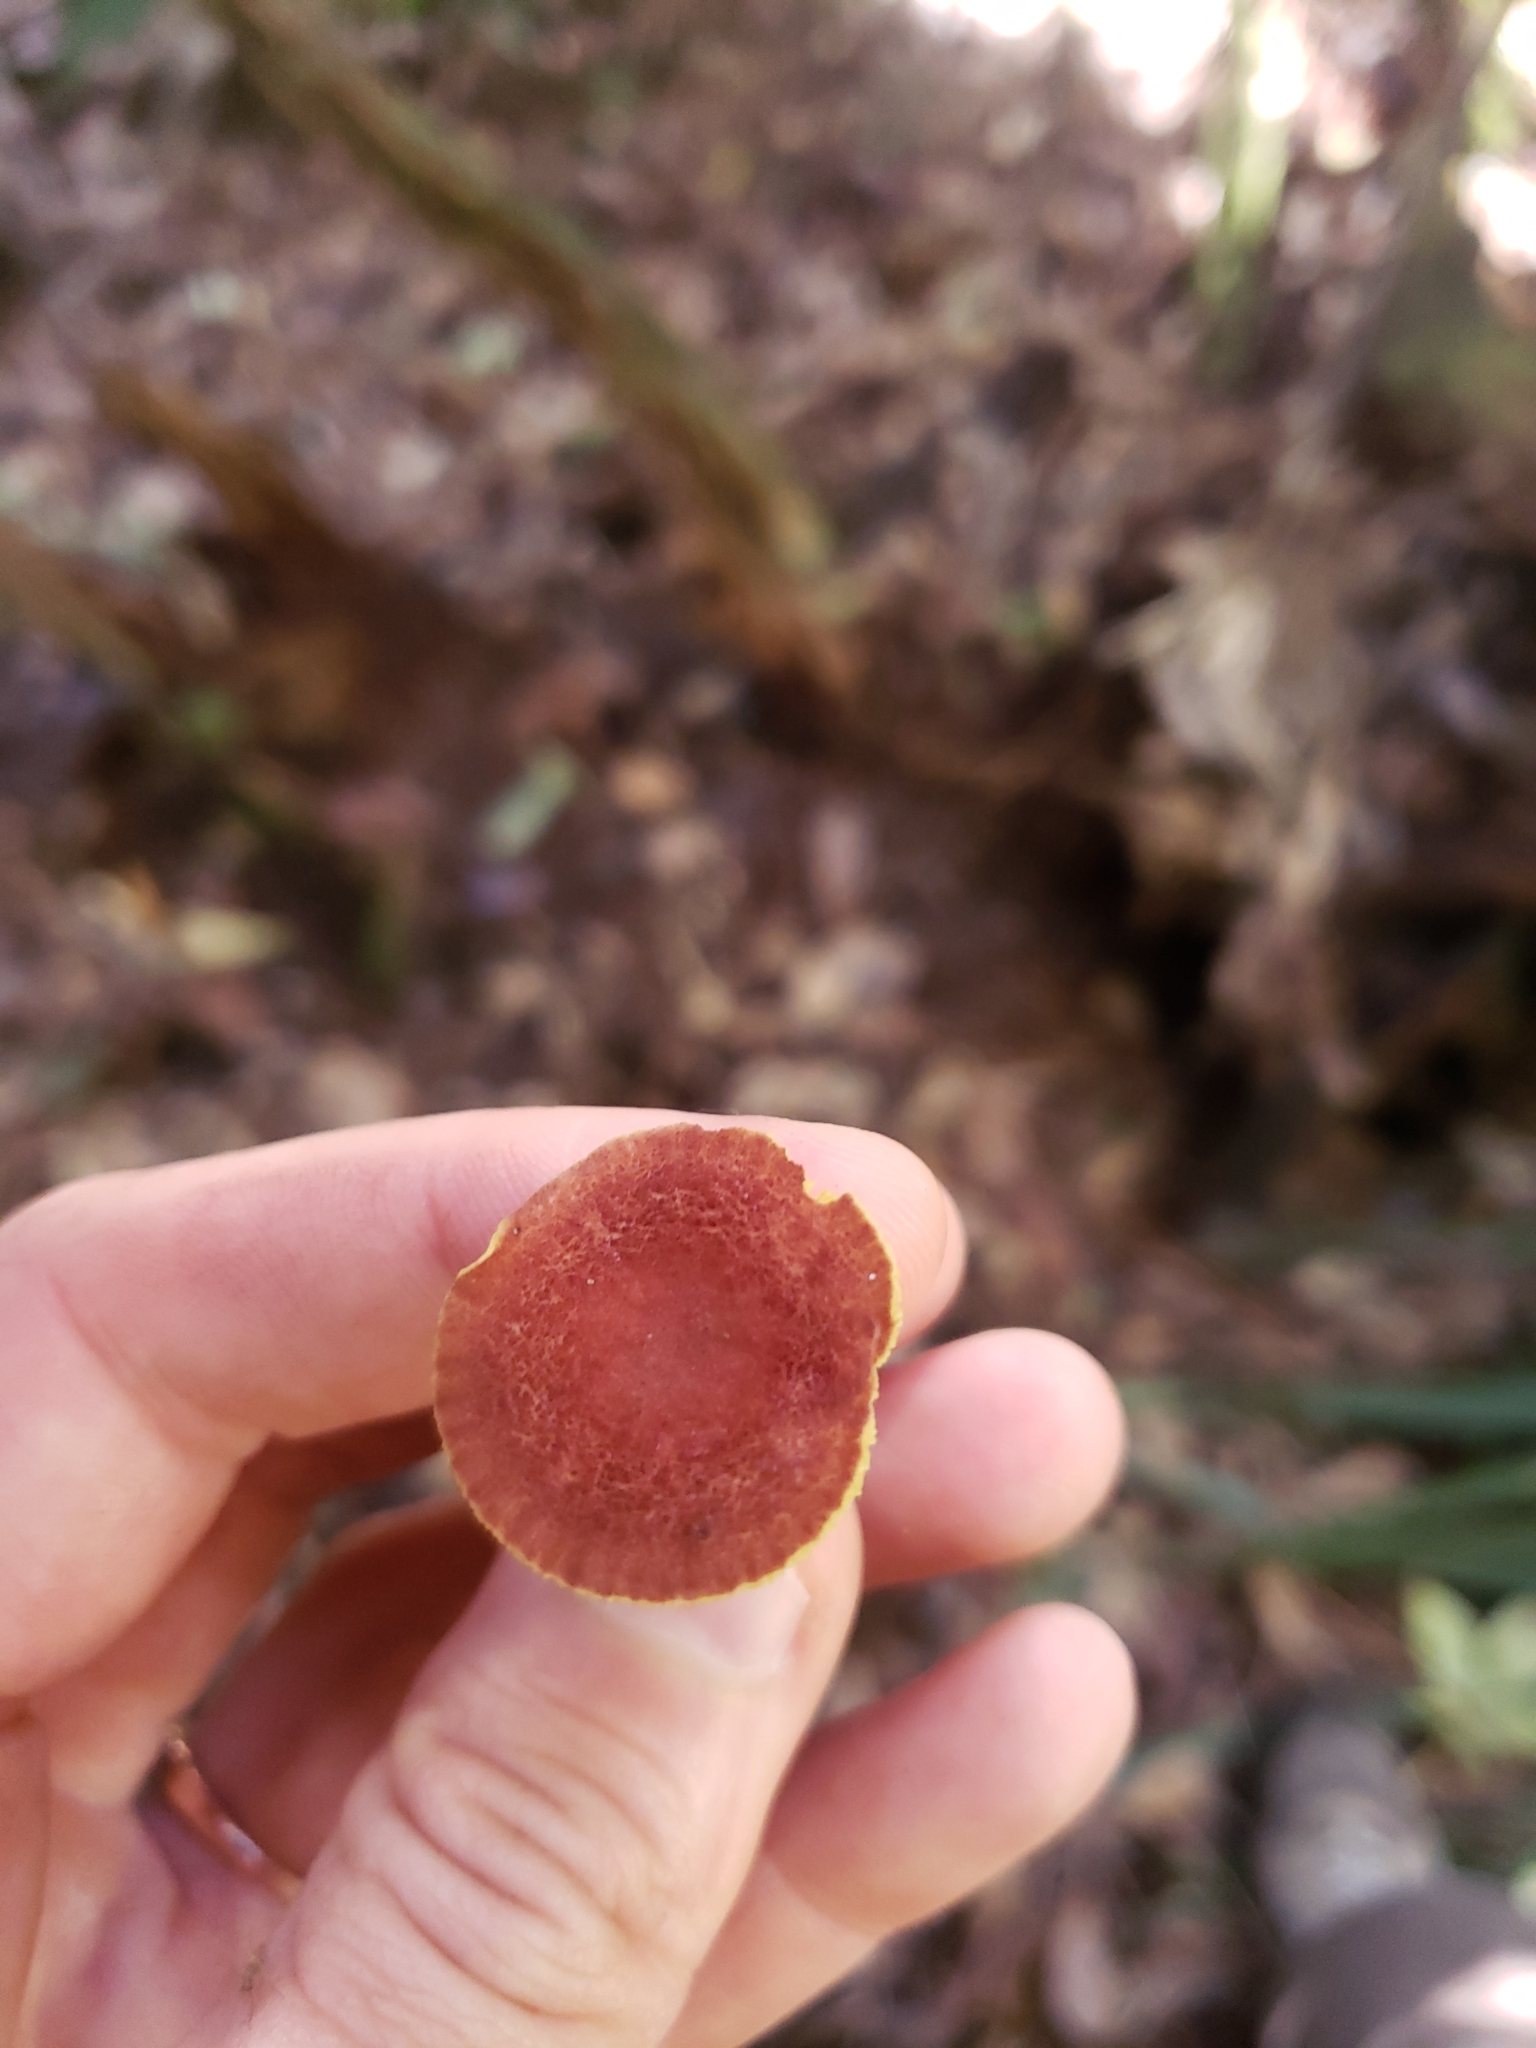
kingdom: Fungi
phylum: Basidiomycota
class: Agaricomycetes
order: Boletales
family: Boletaceae
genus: Phylloporus
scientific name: Phylloporus rhodoxanthus
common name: Golden gilled bolete
